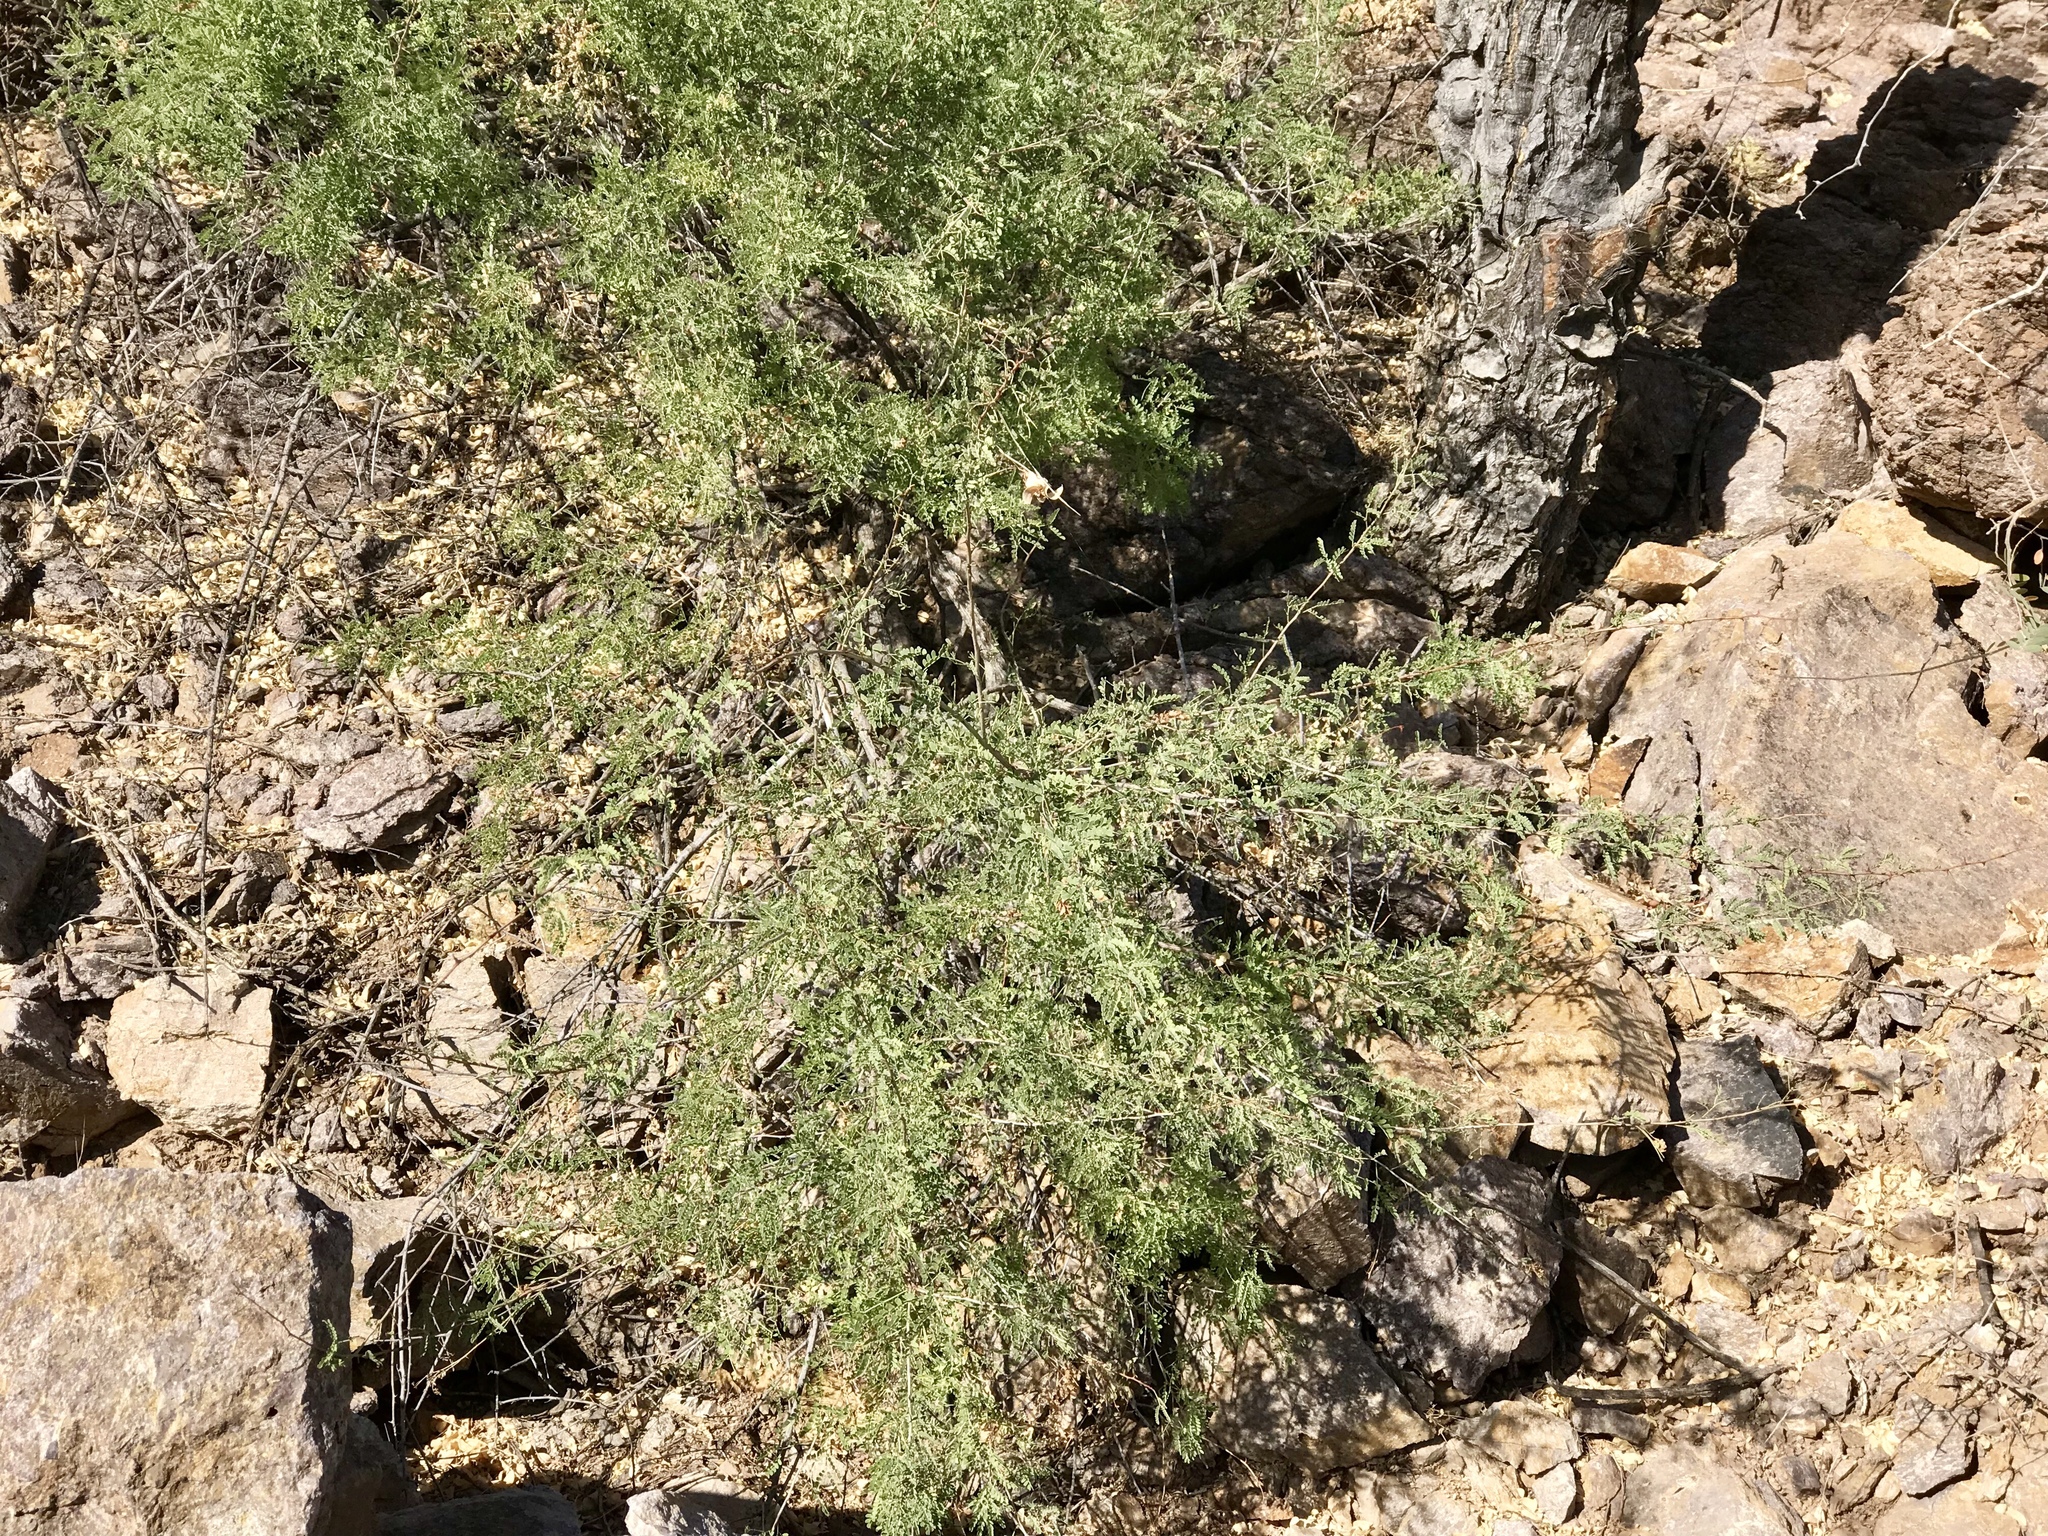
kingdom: Plantae
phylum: Tracheophyta
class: Magnoliopsida
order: Fabales
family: Fabaceae
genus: Senegalia
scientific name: Senegalia greggii
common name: Texas-mimosa
